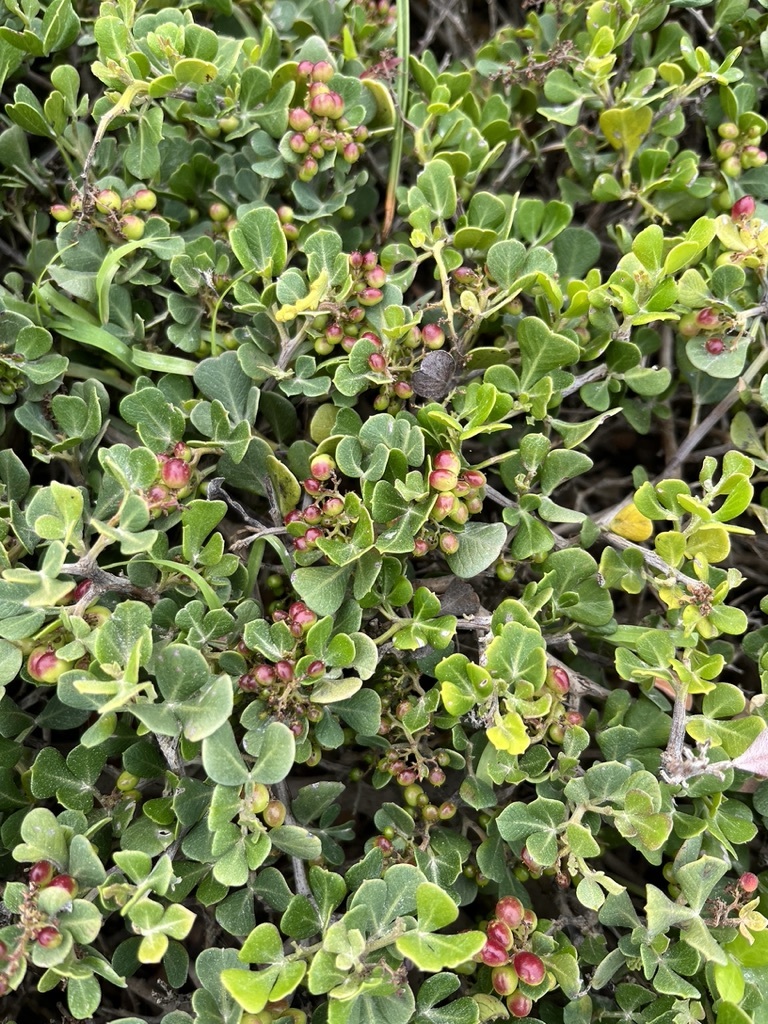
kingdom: Plantae
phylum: Tracheophyta
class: Magnoliopsida
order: Sapindales
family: Anacardiaceae
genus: Searsia
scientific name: Searsia glauca
